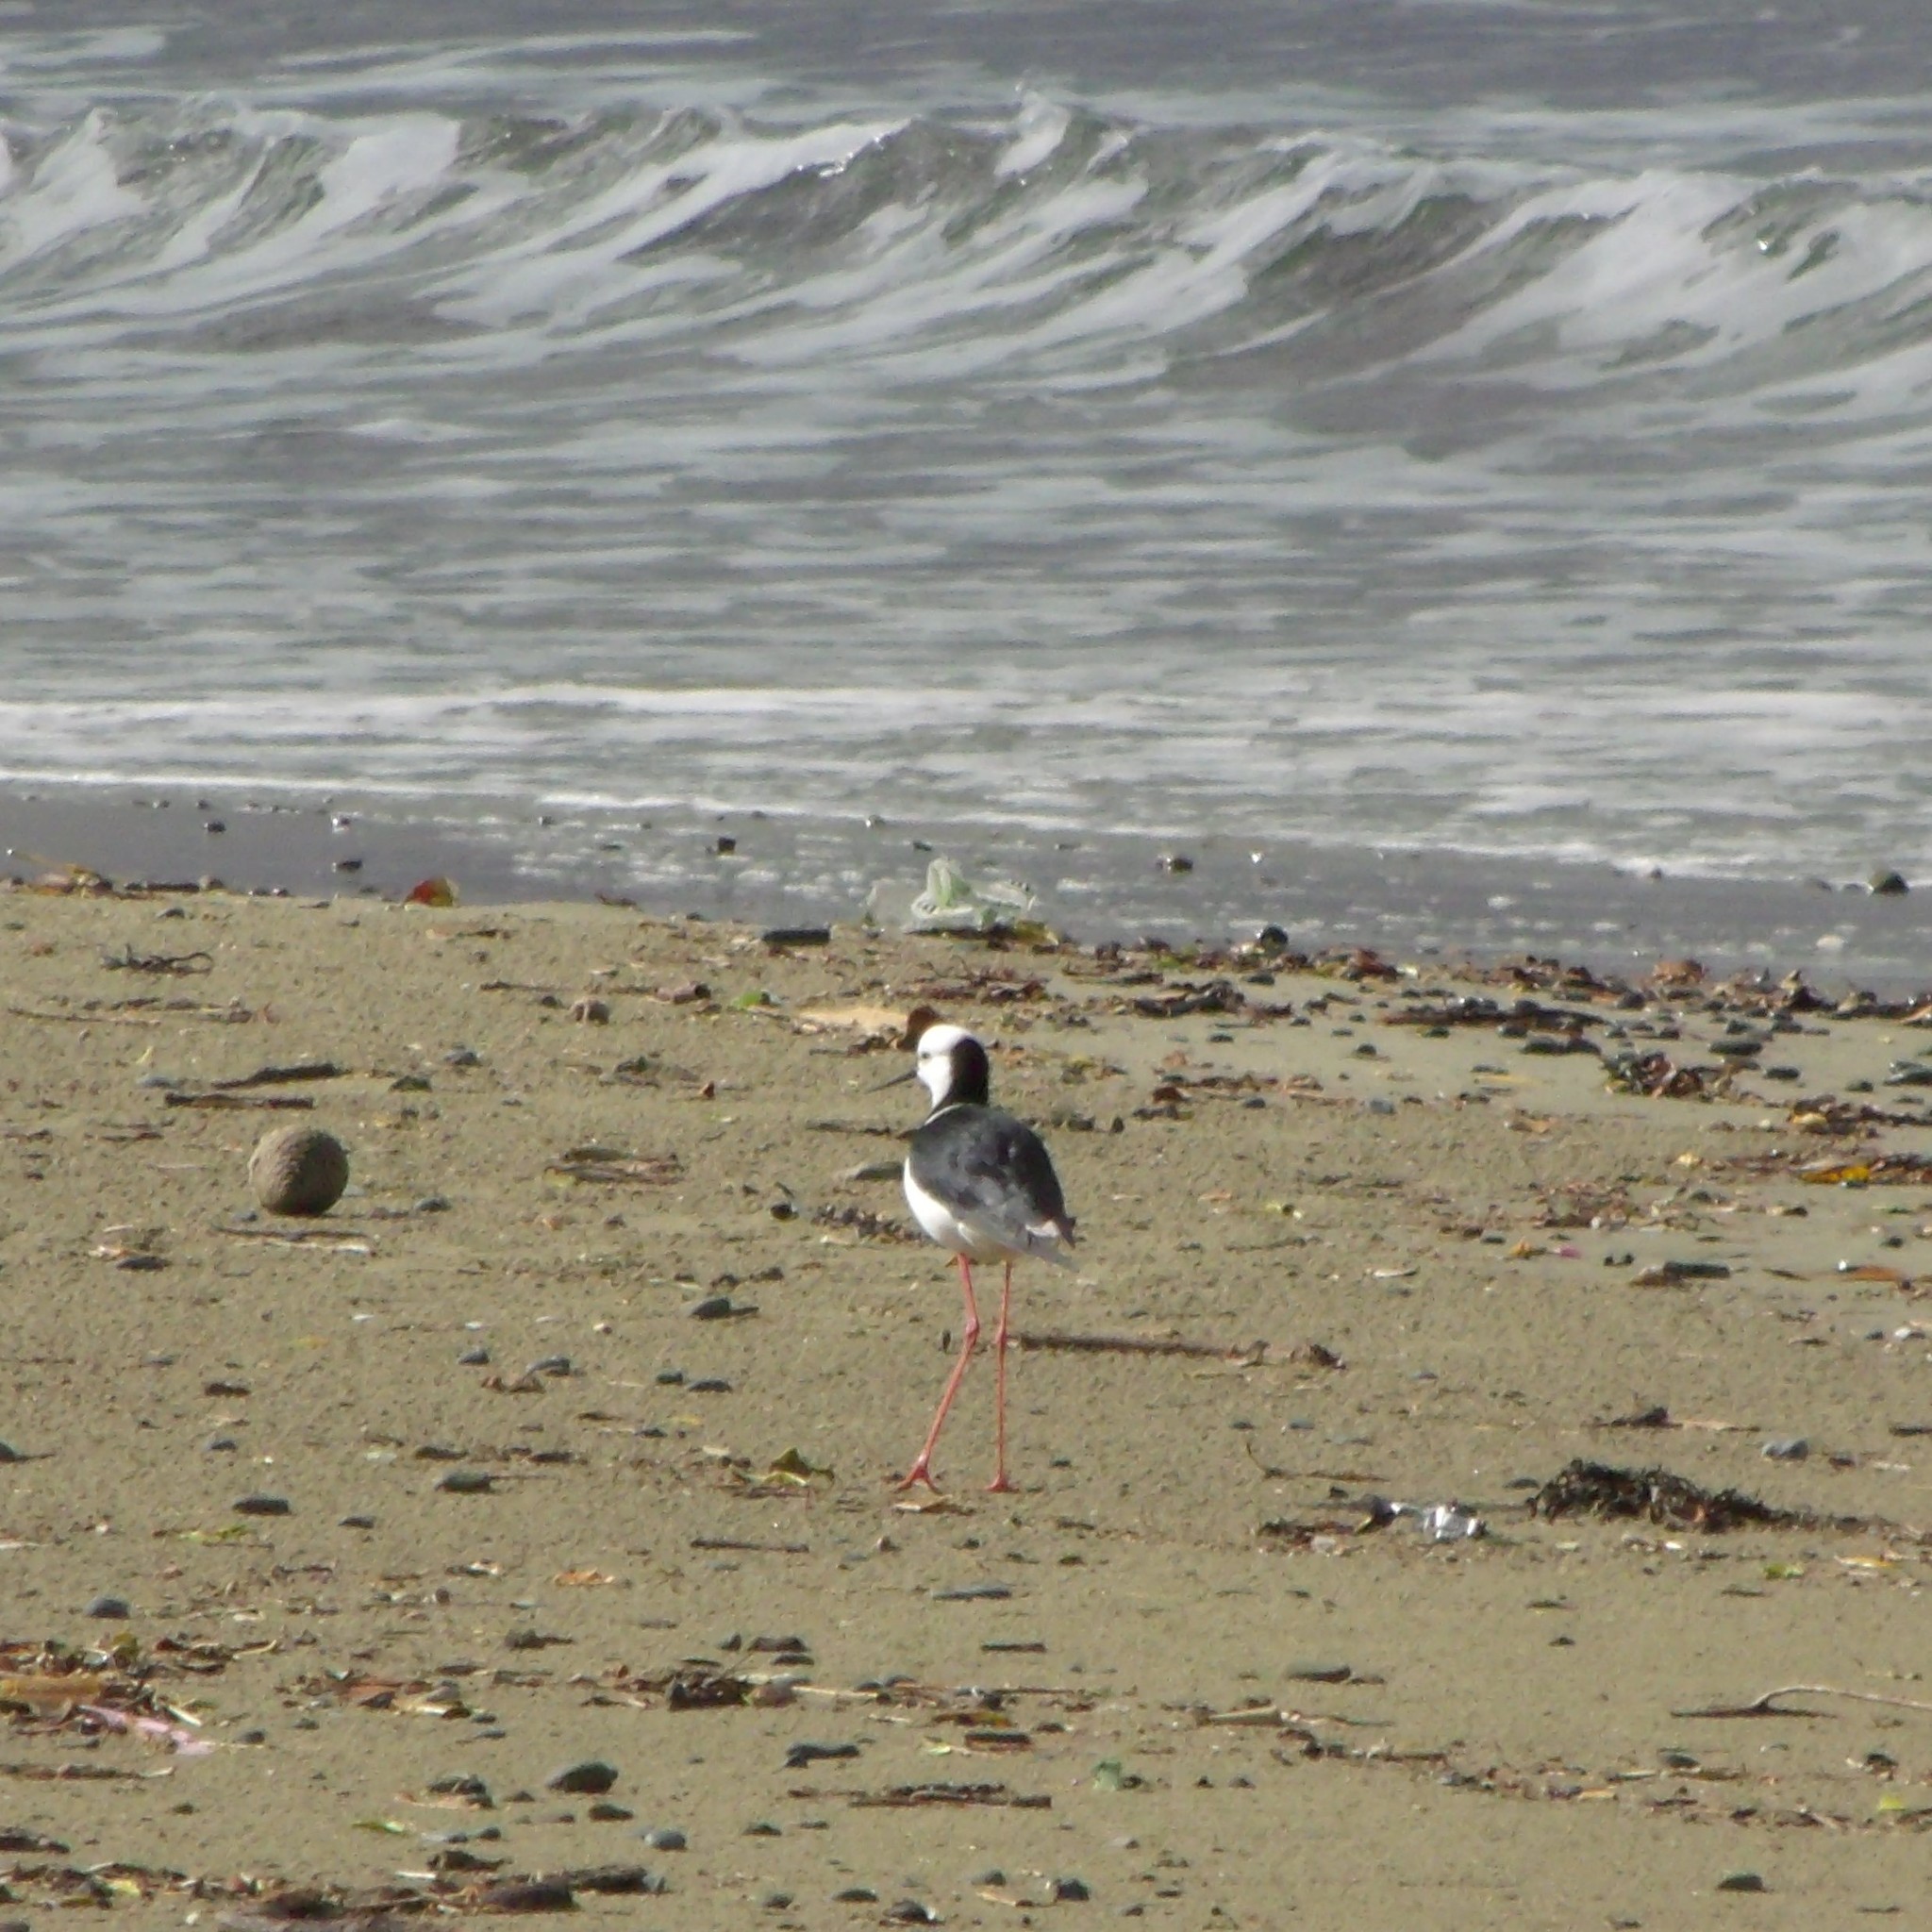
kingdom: Animalia
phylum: Chordata
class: Aves
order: Charadriiformes
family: Recurvirostridae
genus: Himantopus
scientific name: Himantopus leucocephalus
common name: White-headed stilt
